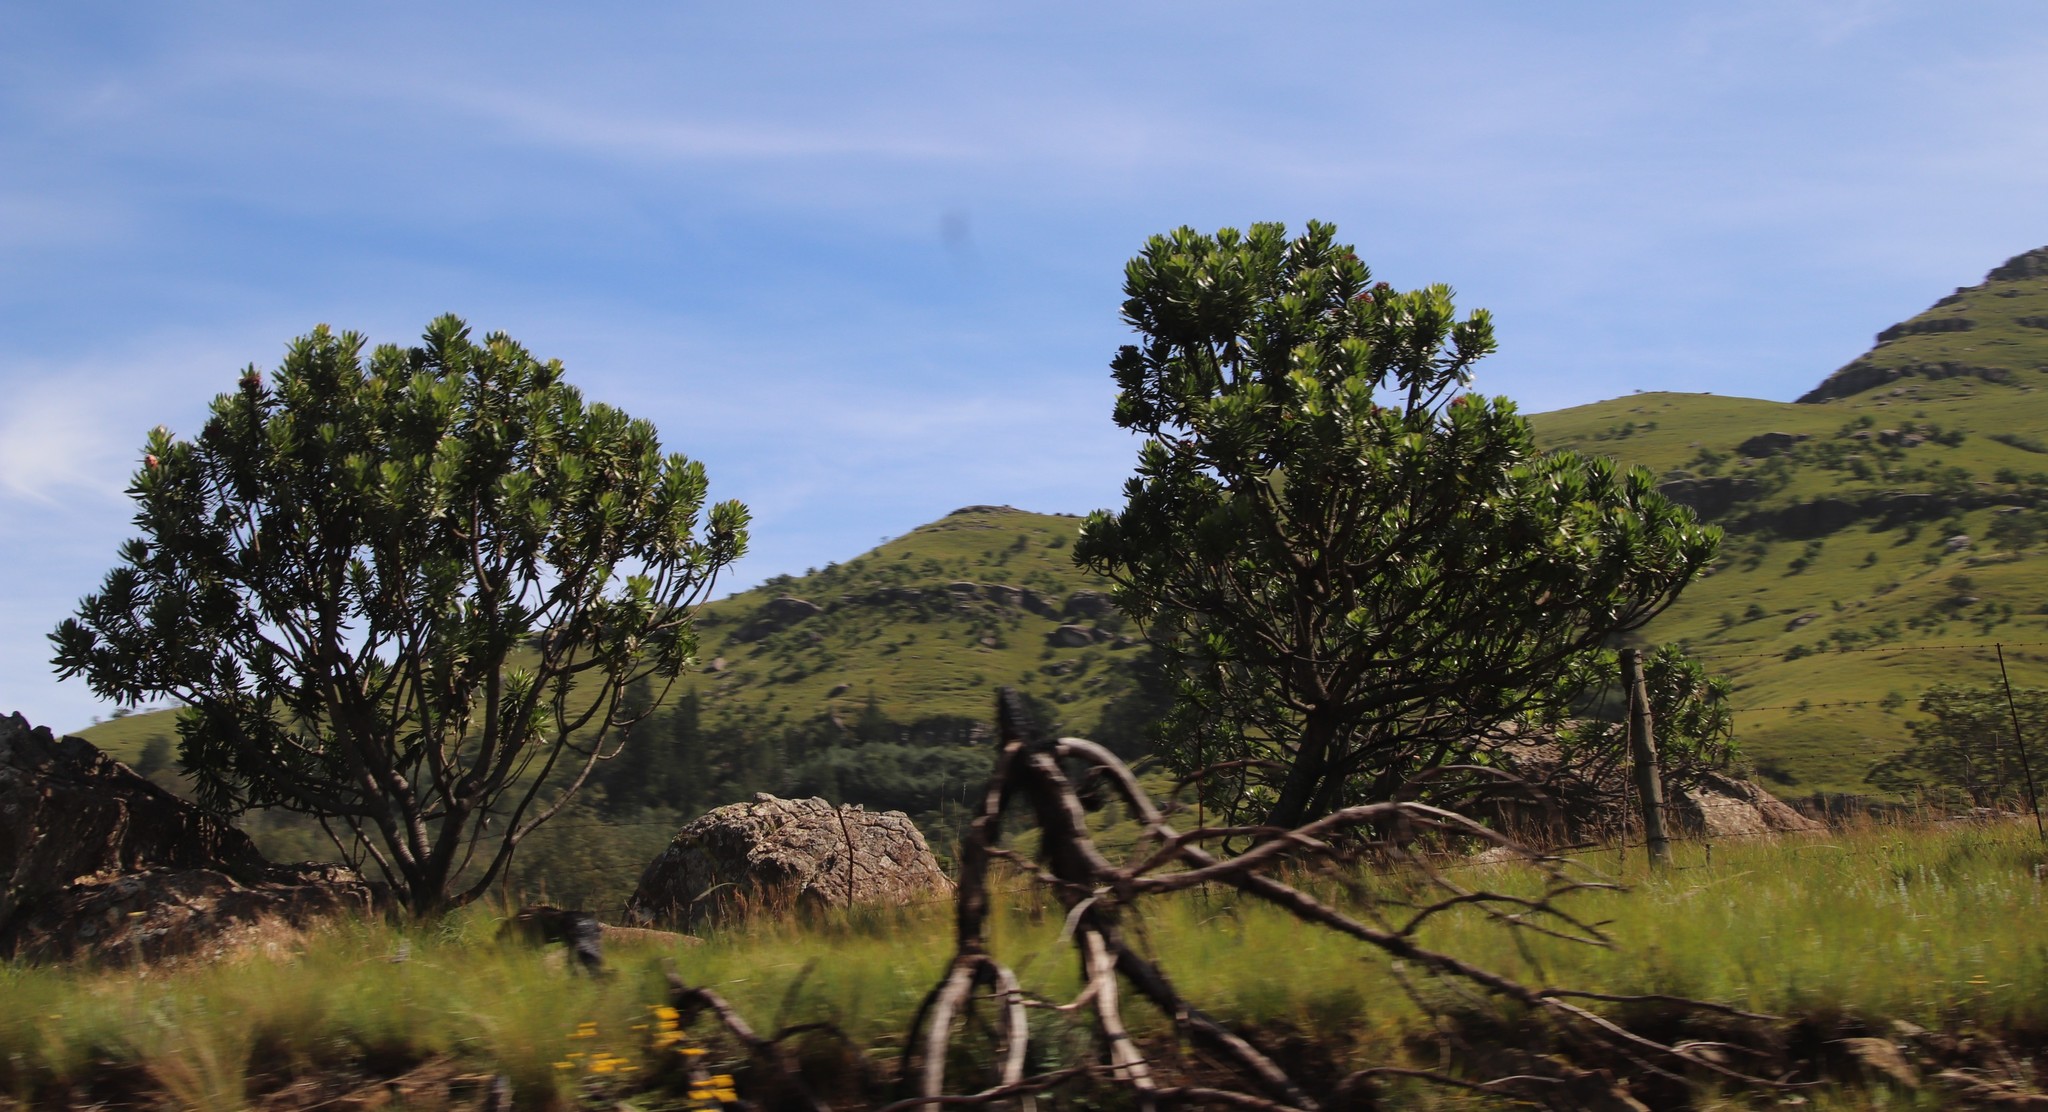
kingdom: Plantae
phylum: Tracheophyta
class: Magnoliopsida
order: Proteales
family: Proteaceae
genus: Protea
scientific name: Protea roupelliae
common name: Silver sugarbush
